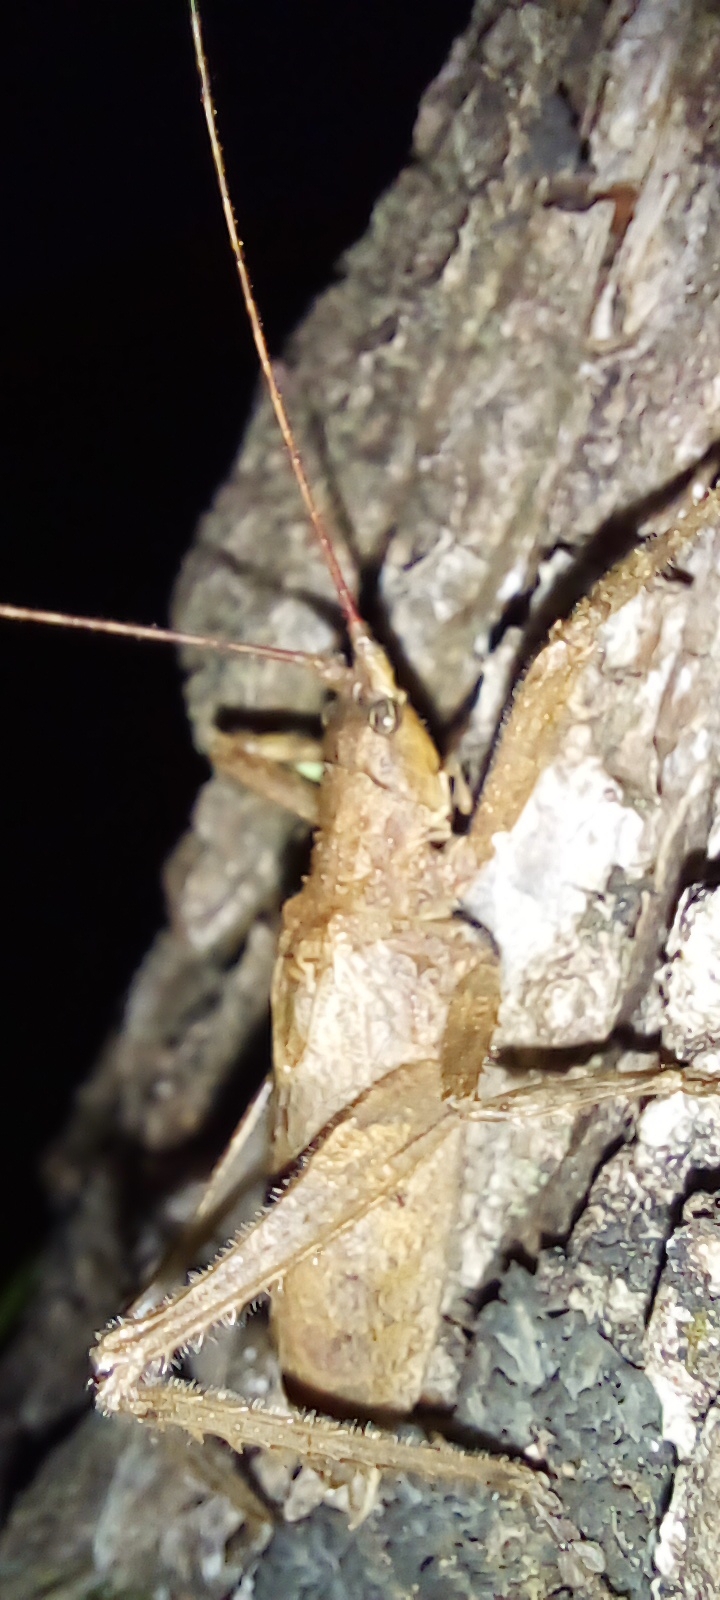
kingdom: Animalia
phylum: Arthropoda
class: Insecta
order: Orthoptera
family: Tettigoniidae
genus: Dasyscelus
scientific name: Dasyscelus normalis
